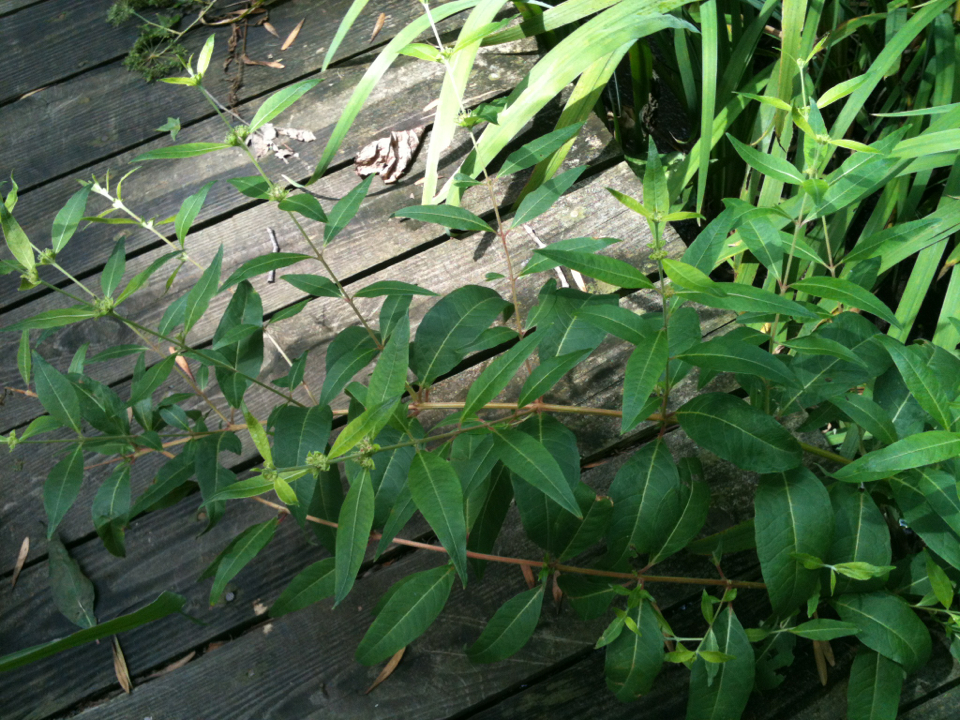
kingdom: Plantae
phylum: Tracheophyta
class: Magnoliopsida
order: Myrtales
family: Lythraceae
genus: Decodon
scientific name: Decodon verticillatus
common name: Hairy swamp loosestrife
